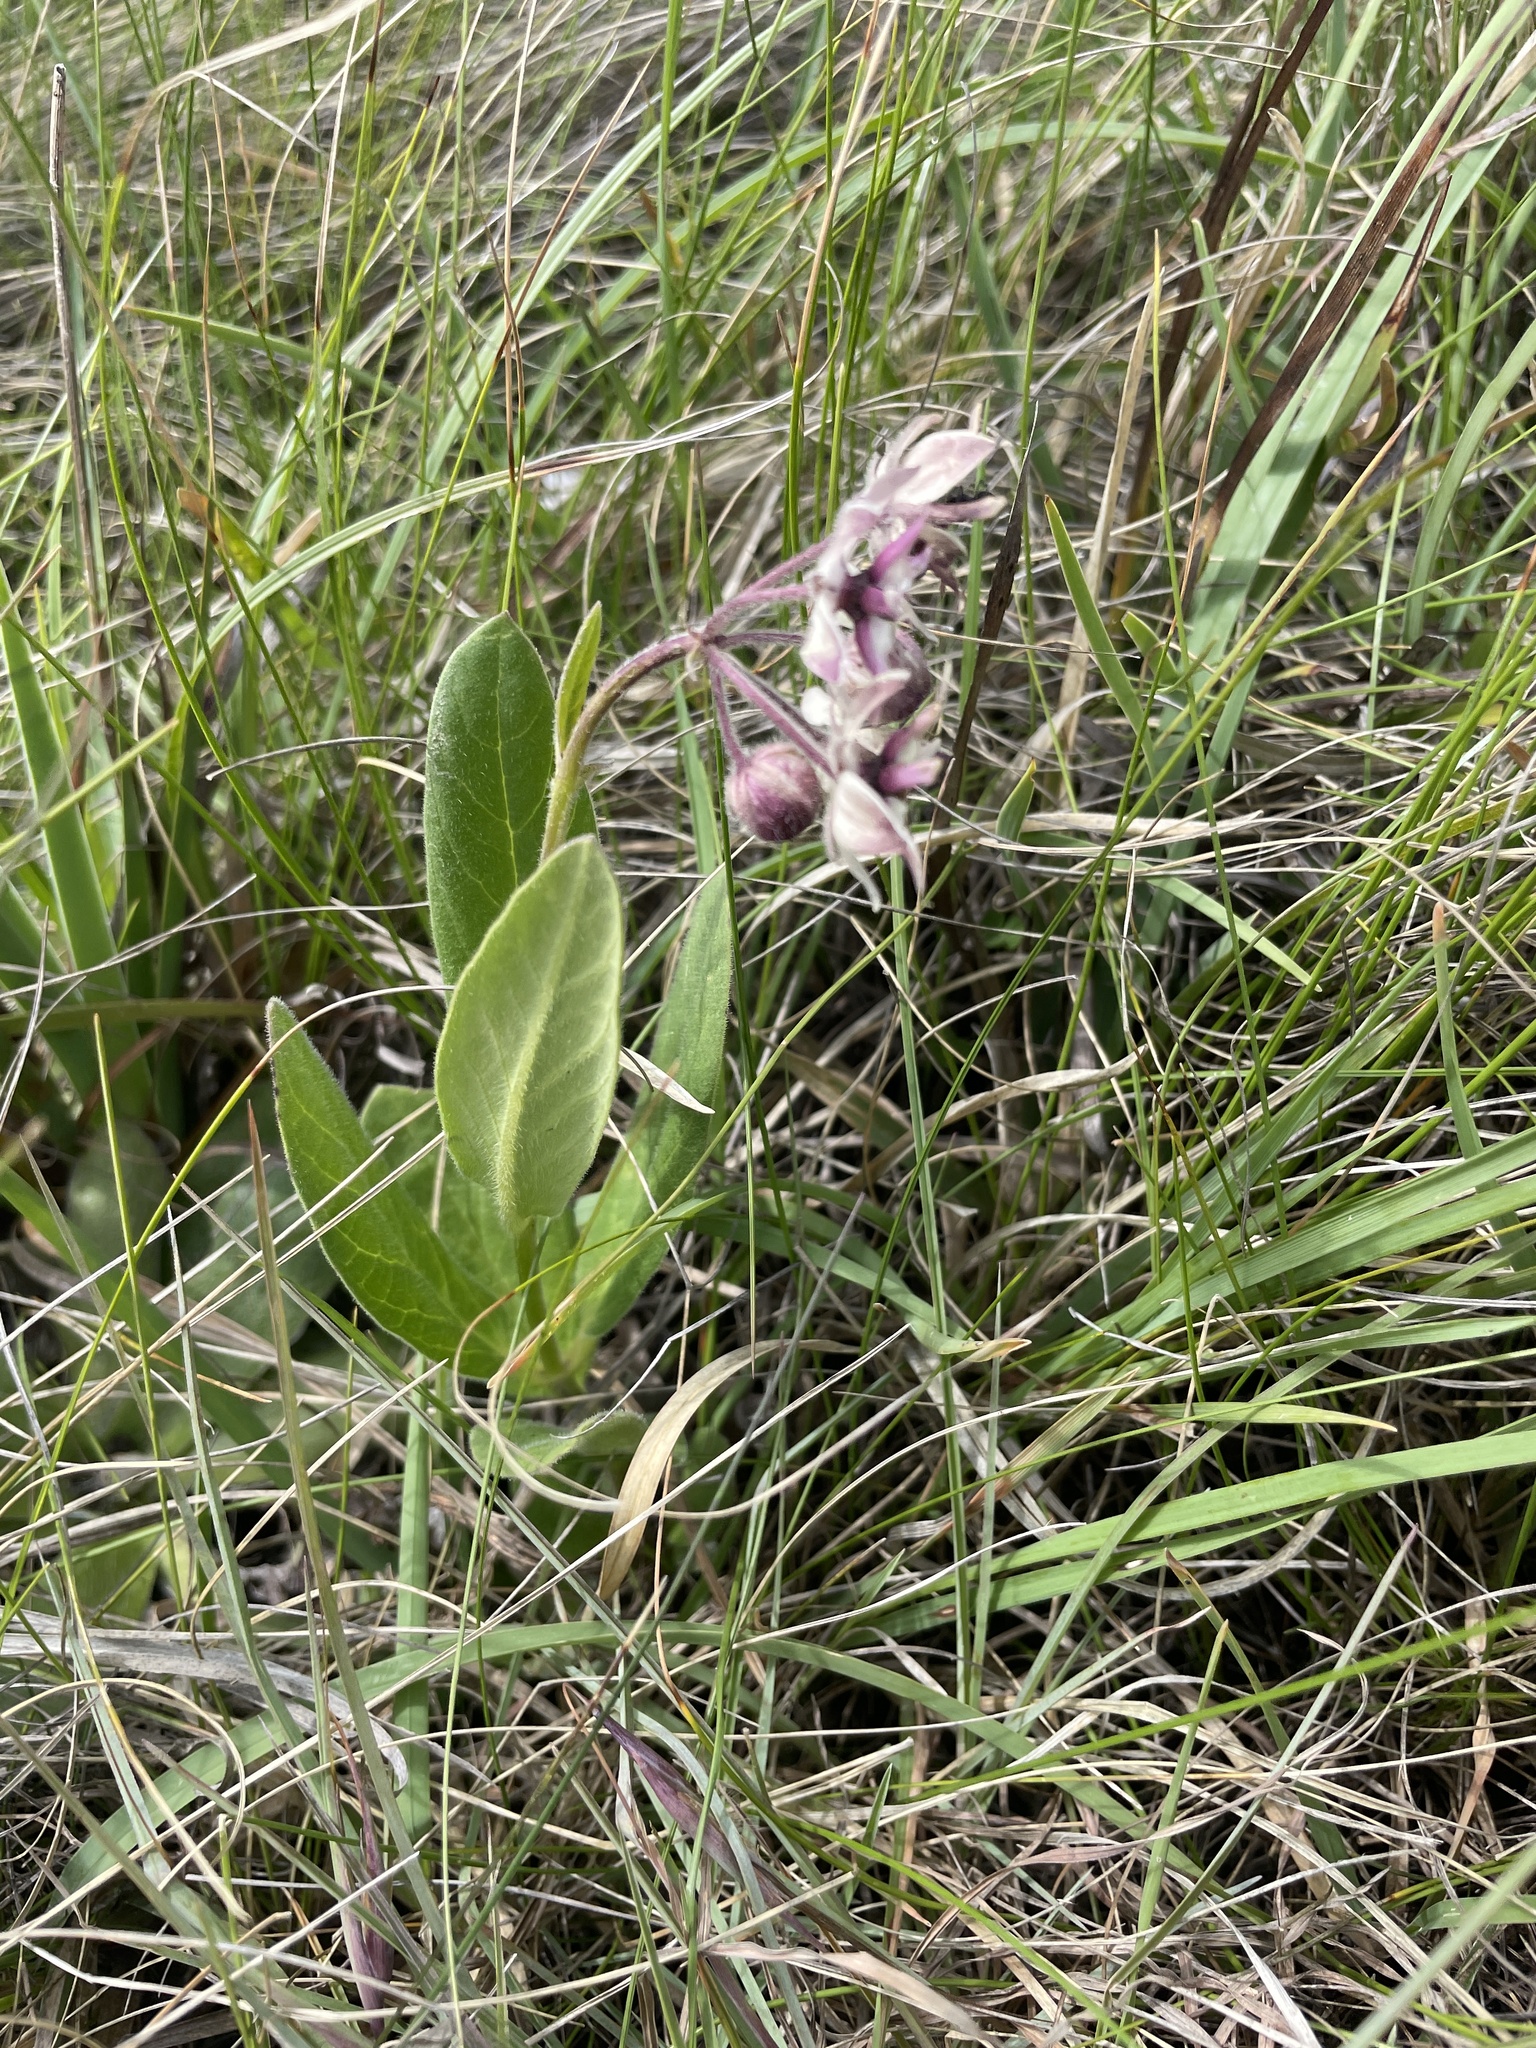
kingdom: Plantae
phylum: Tracheophyta
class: Magnoliopsida
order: Gentianales
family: Apocynaceae
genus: Asclepias
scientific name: Asclepias humilis
